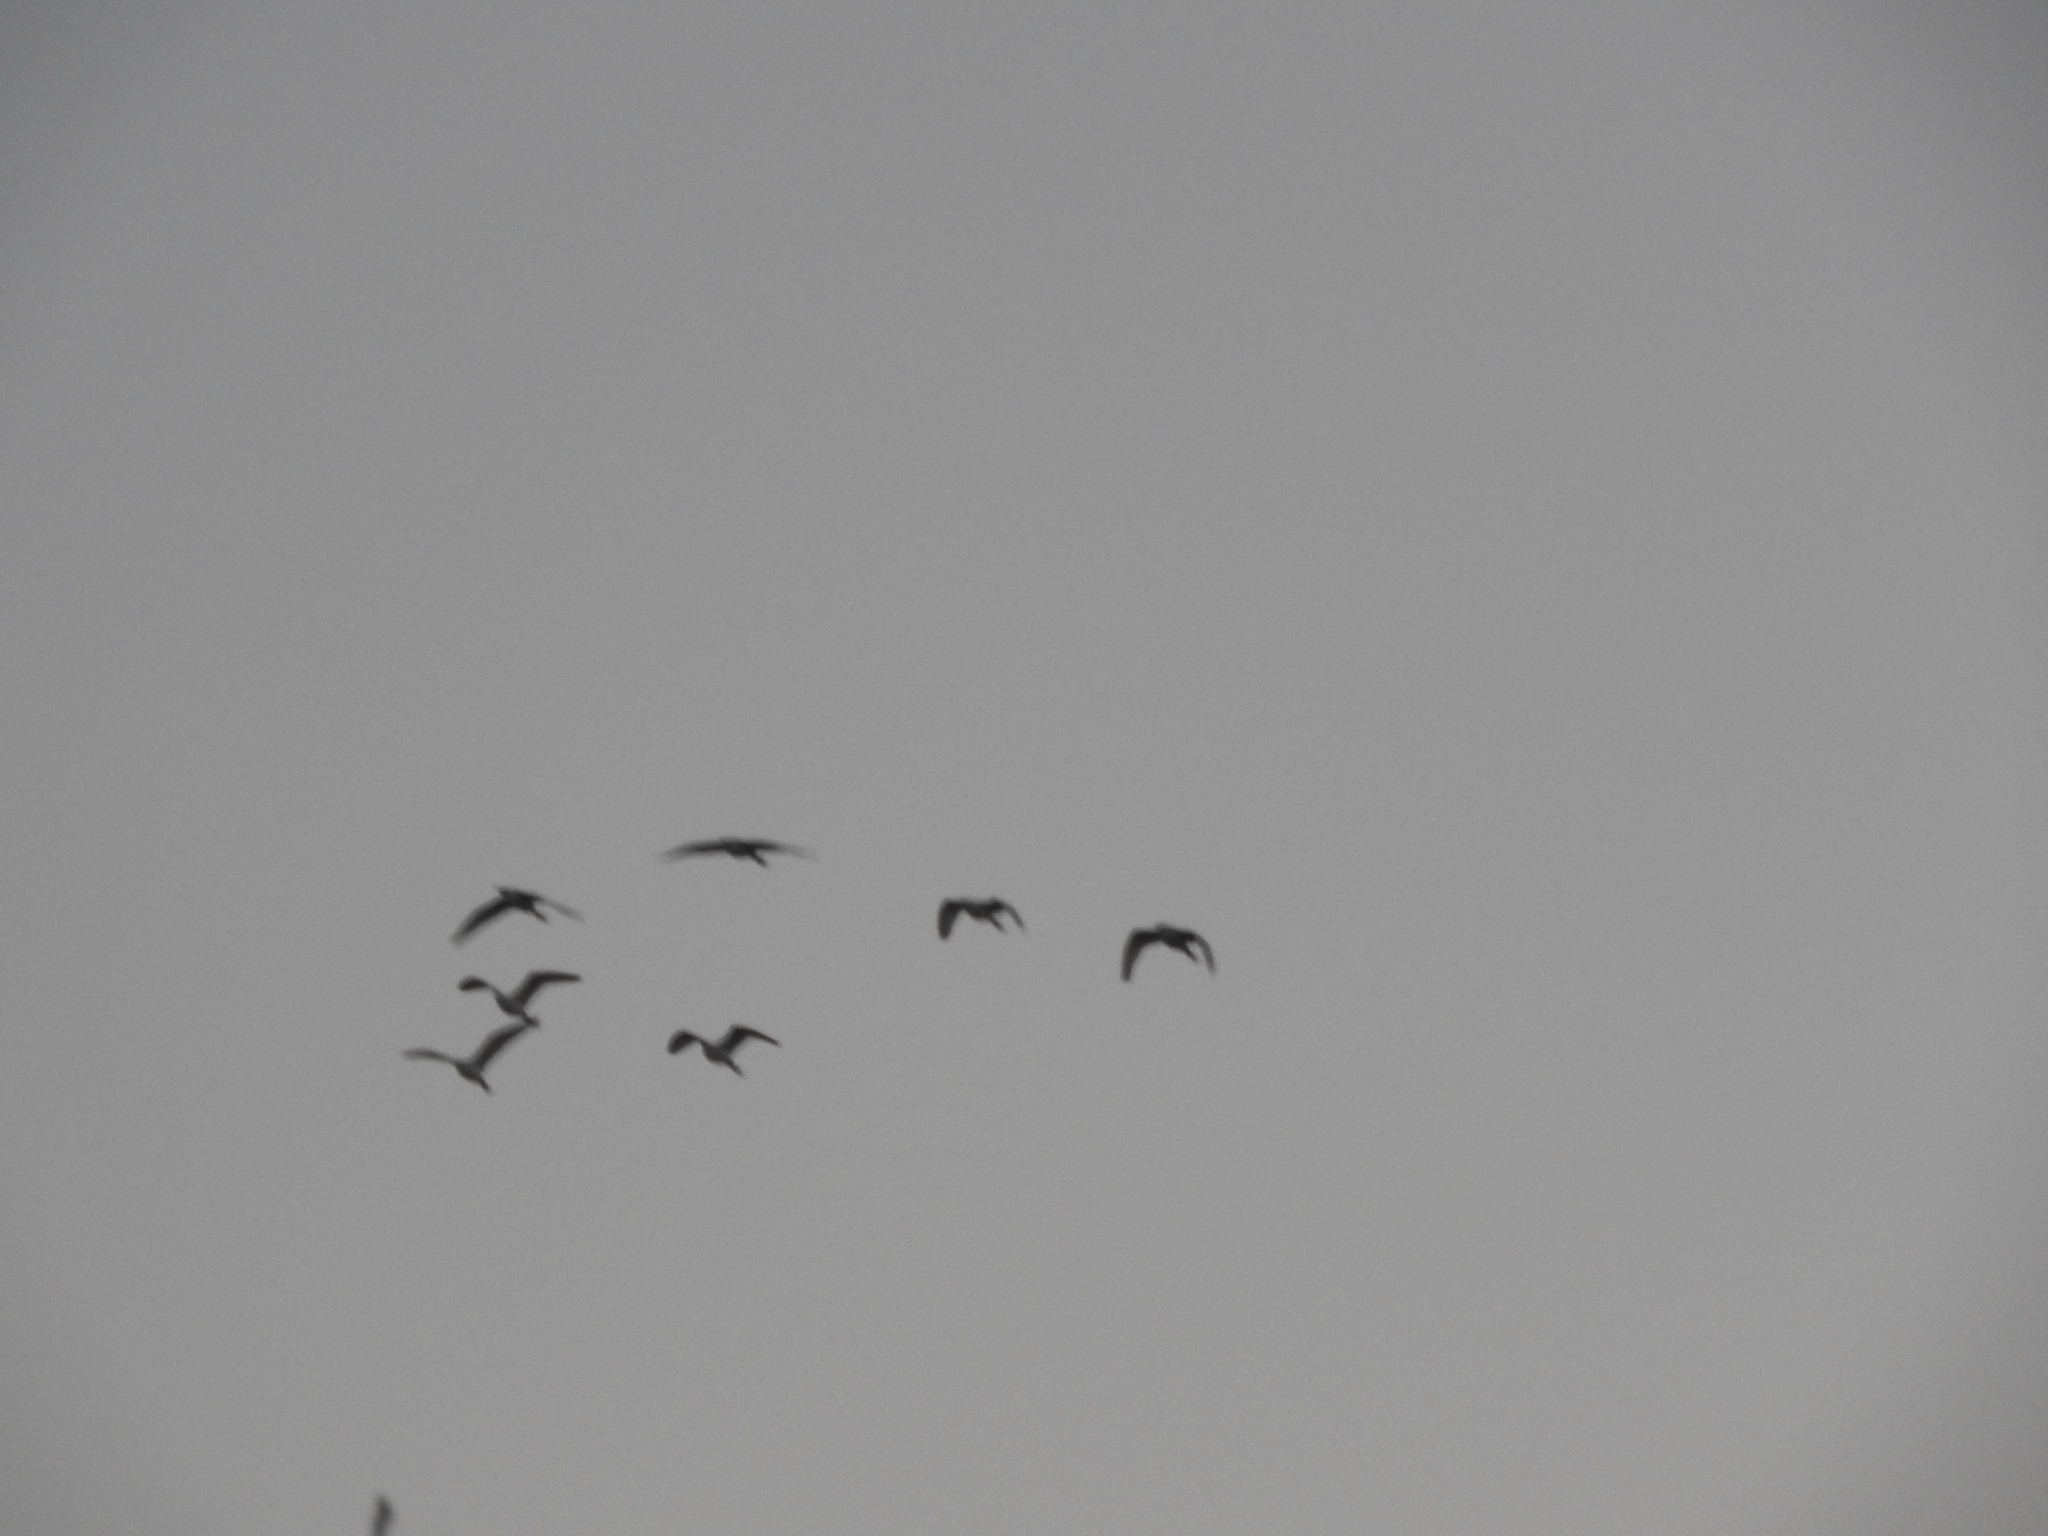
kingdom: Animalia
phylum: Chordata
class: Aves
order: Pelecaniformes
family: Ardeidae
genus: Bubulcus
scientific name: Bubulcus ibis
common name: Cattle egret
